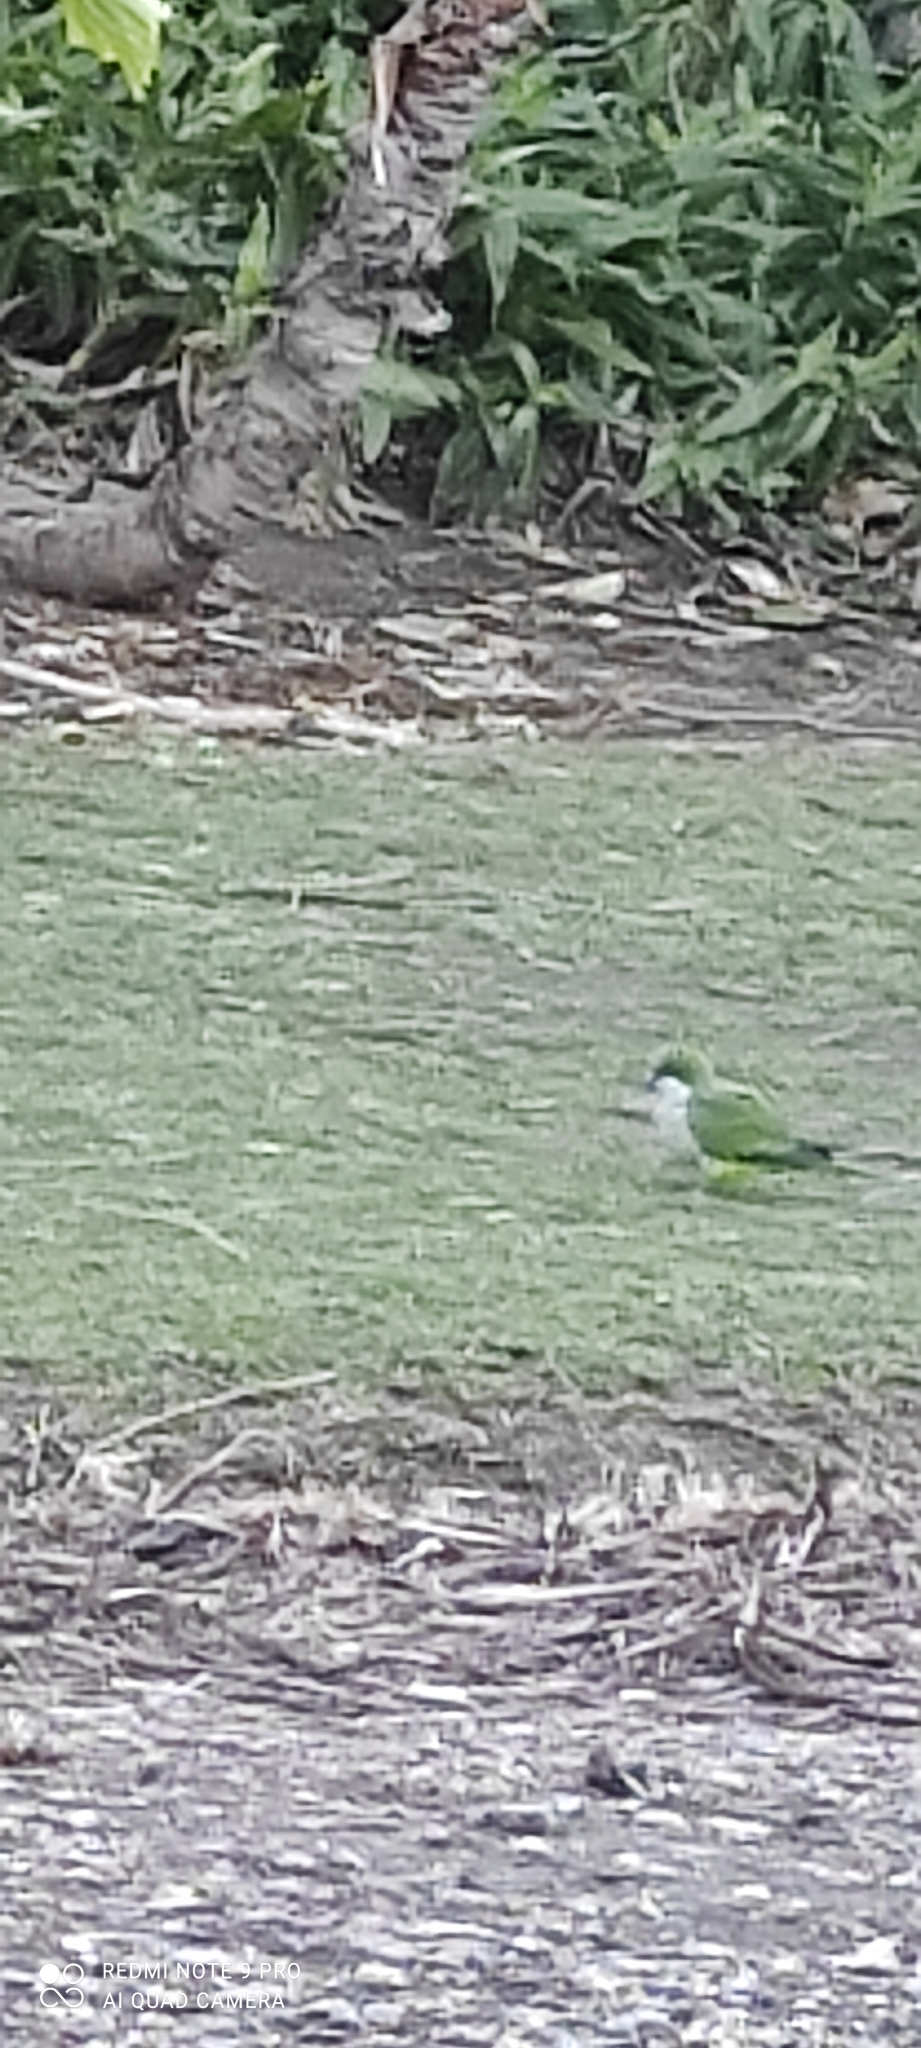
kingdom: Animalia
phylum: Chordata
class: Aves
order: Psittaciformes
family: Psittacidae
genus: Myiopsitta
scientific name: Myiopsitta monachus
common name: Monk parakeet
